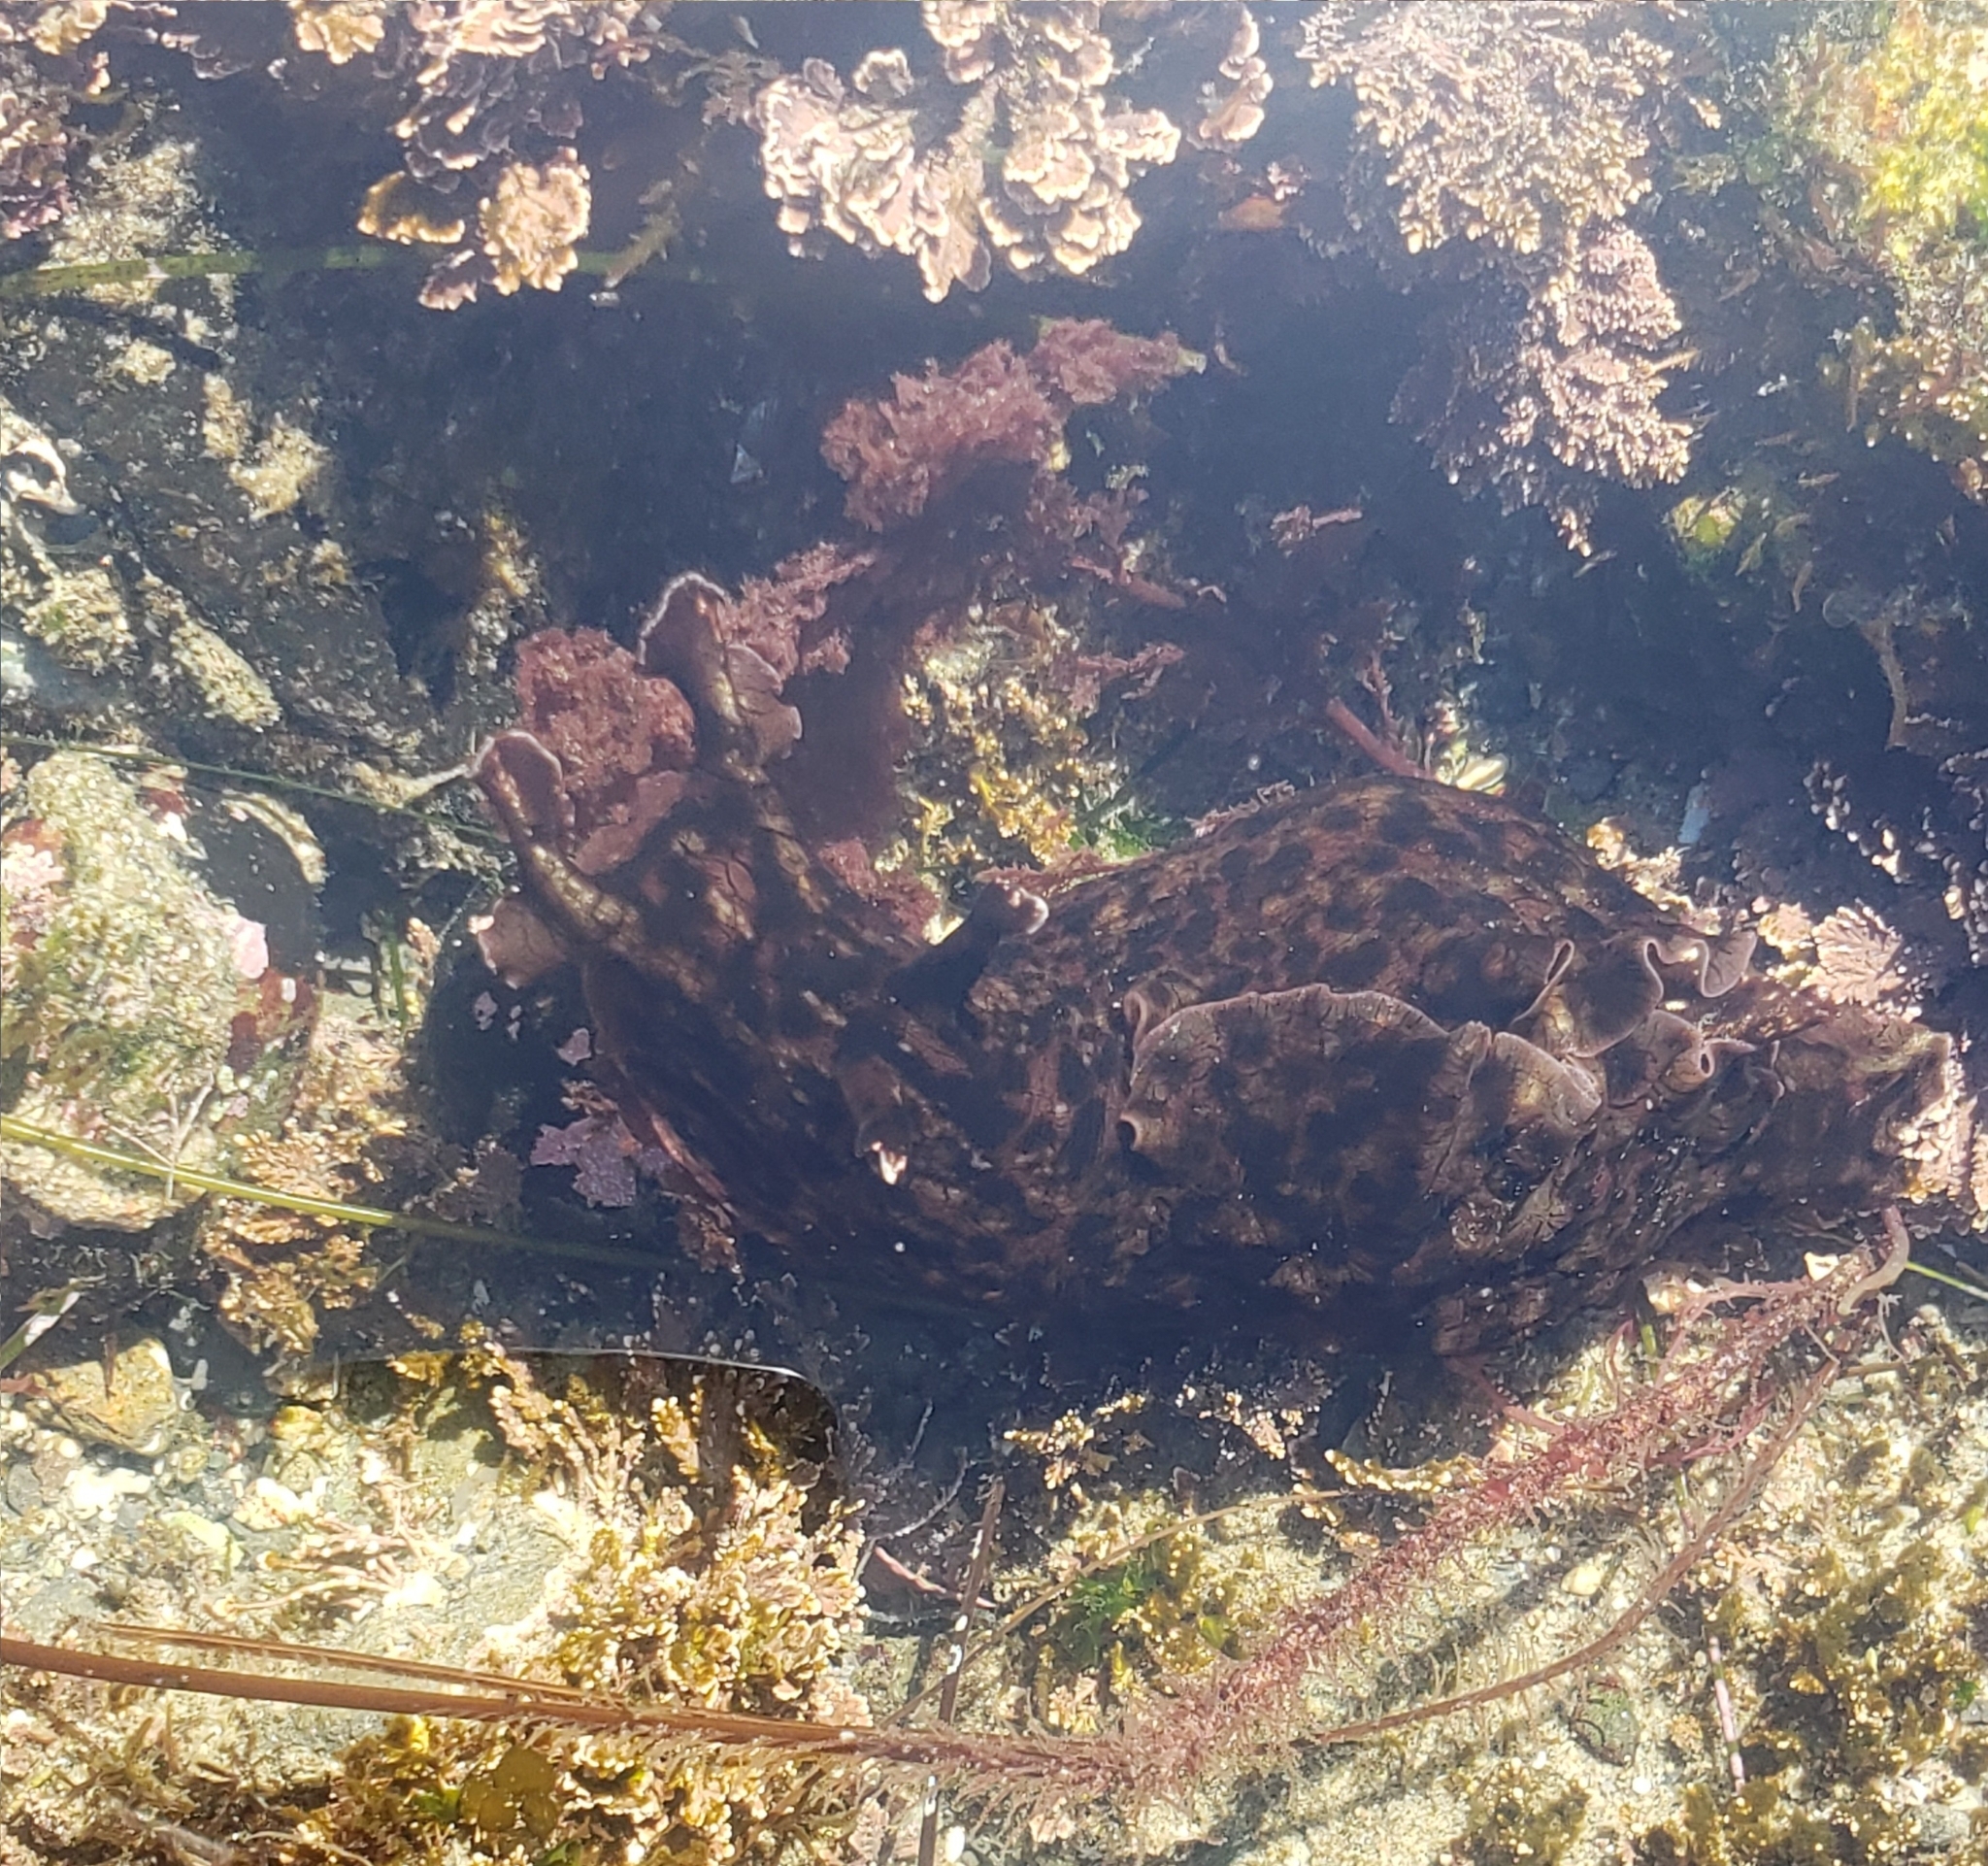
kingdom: Animalia
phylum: Mollusca
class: Gastropoda
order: Aplysiida
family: Aplysiidae
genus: Aplysia
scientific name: Aplysia californica
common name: California seahare
